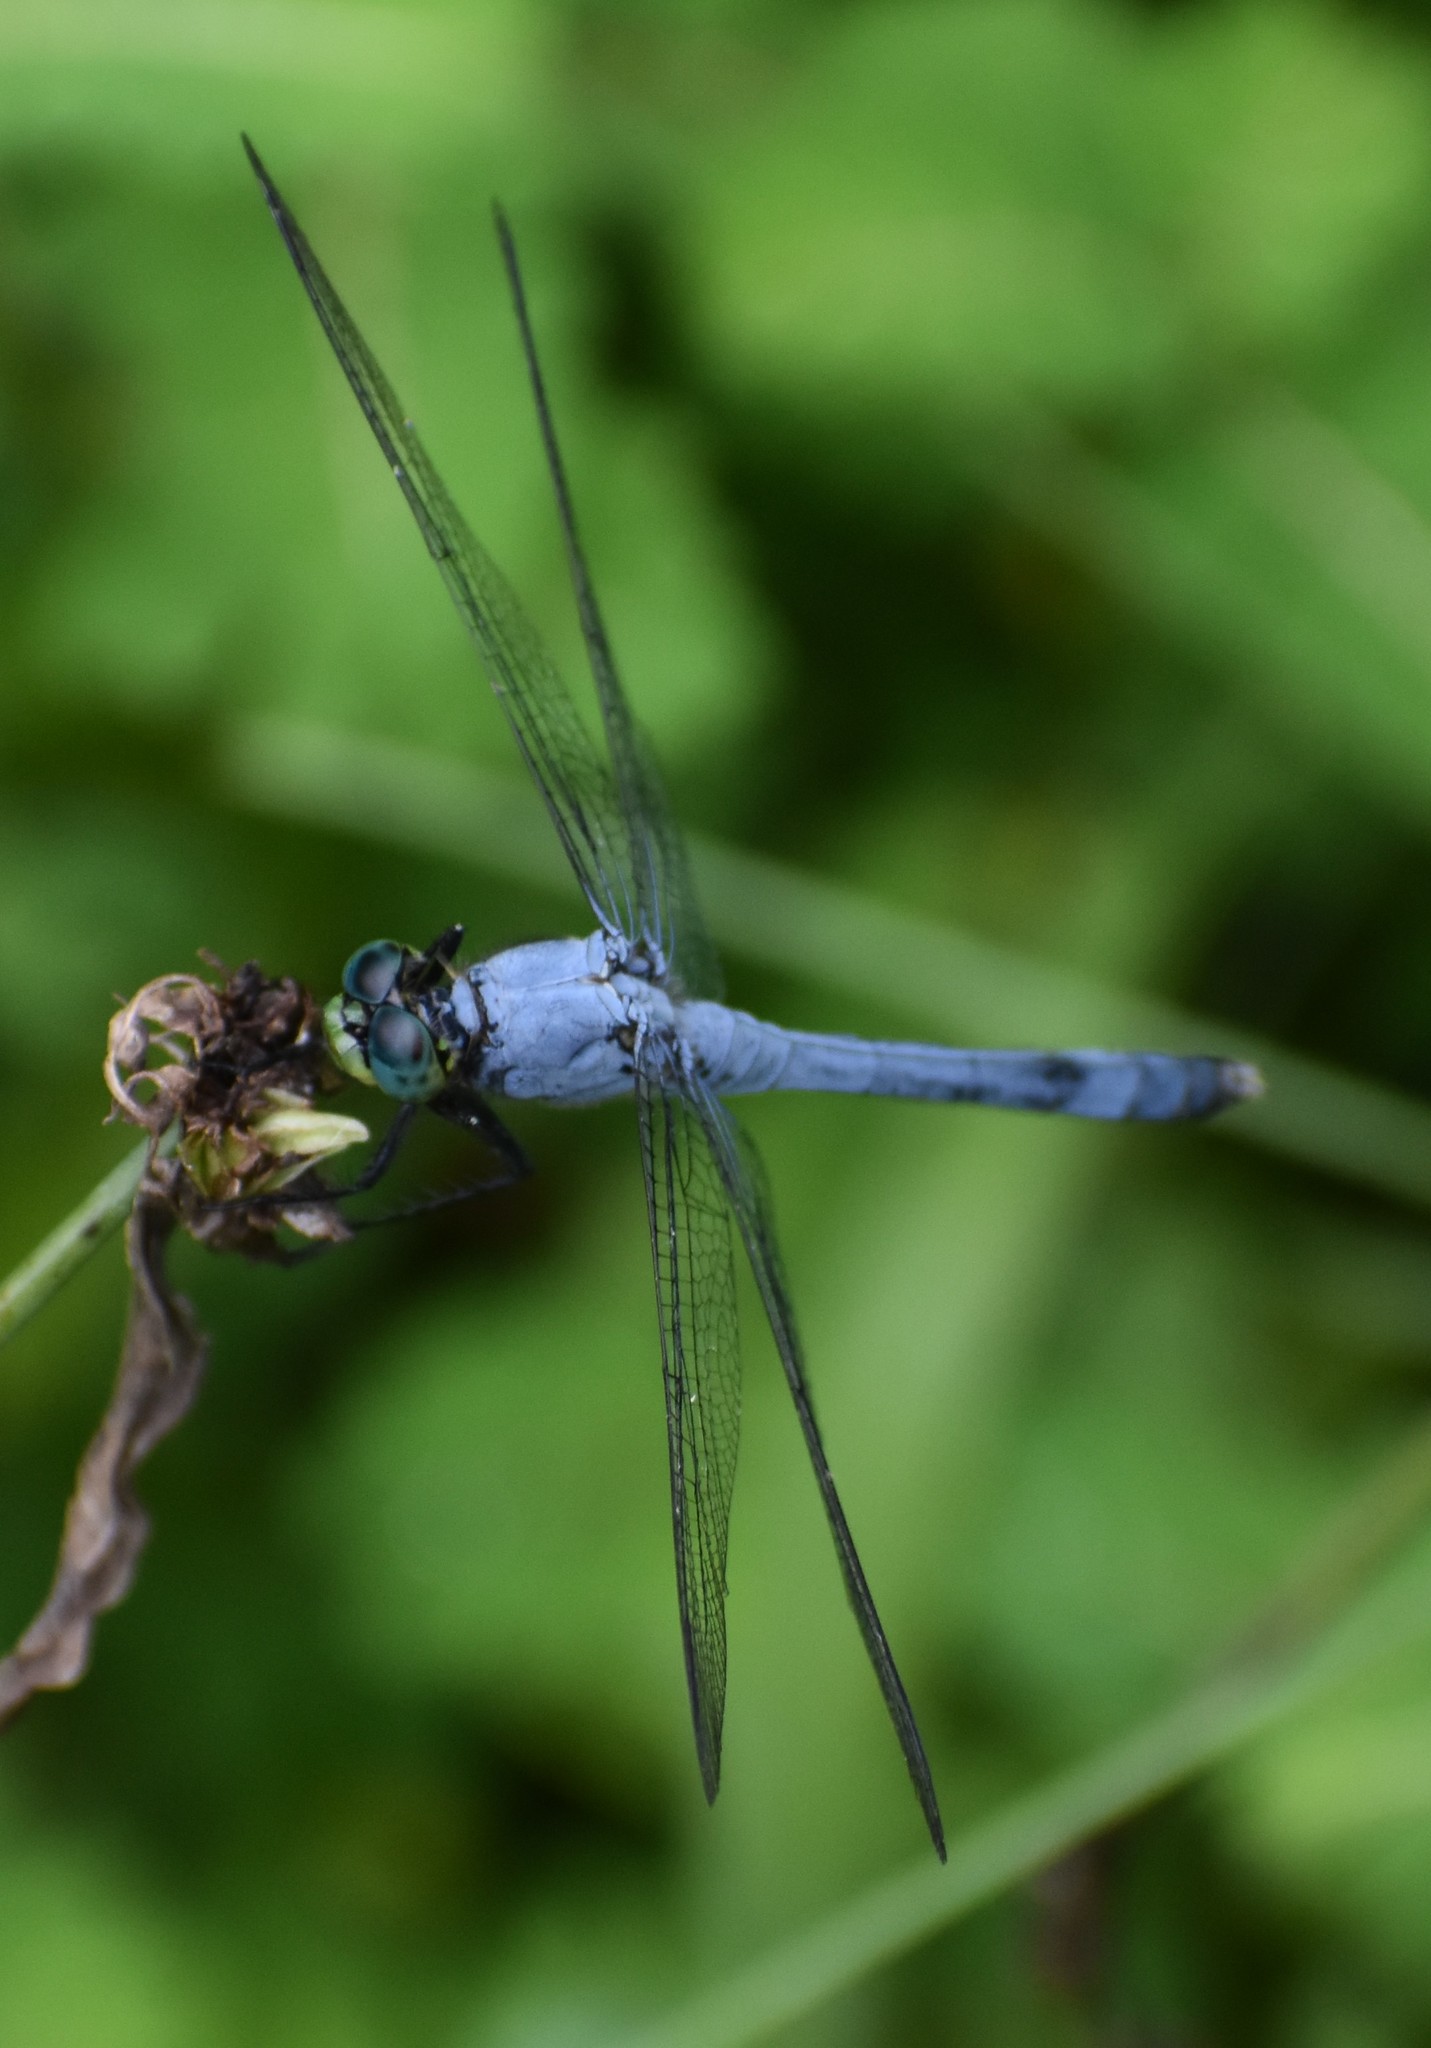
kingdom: Animalia
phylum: Arthropoda
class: Insecta
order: Odonata
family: Libellulidae
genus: Erythemis
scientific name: Erythemis simplicicollis
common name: Eastern pondhawk
